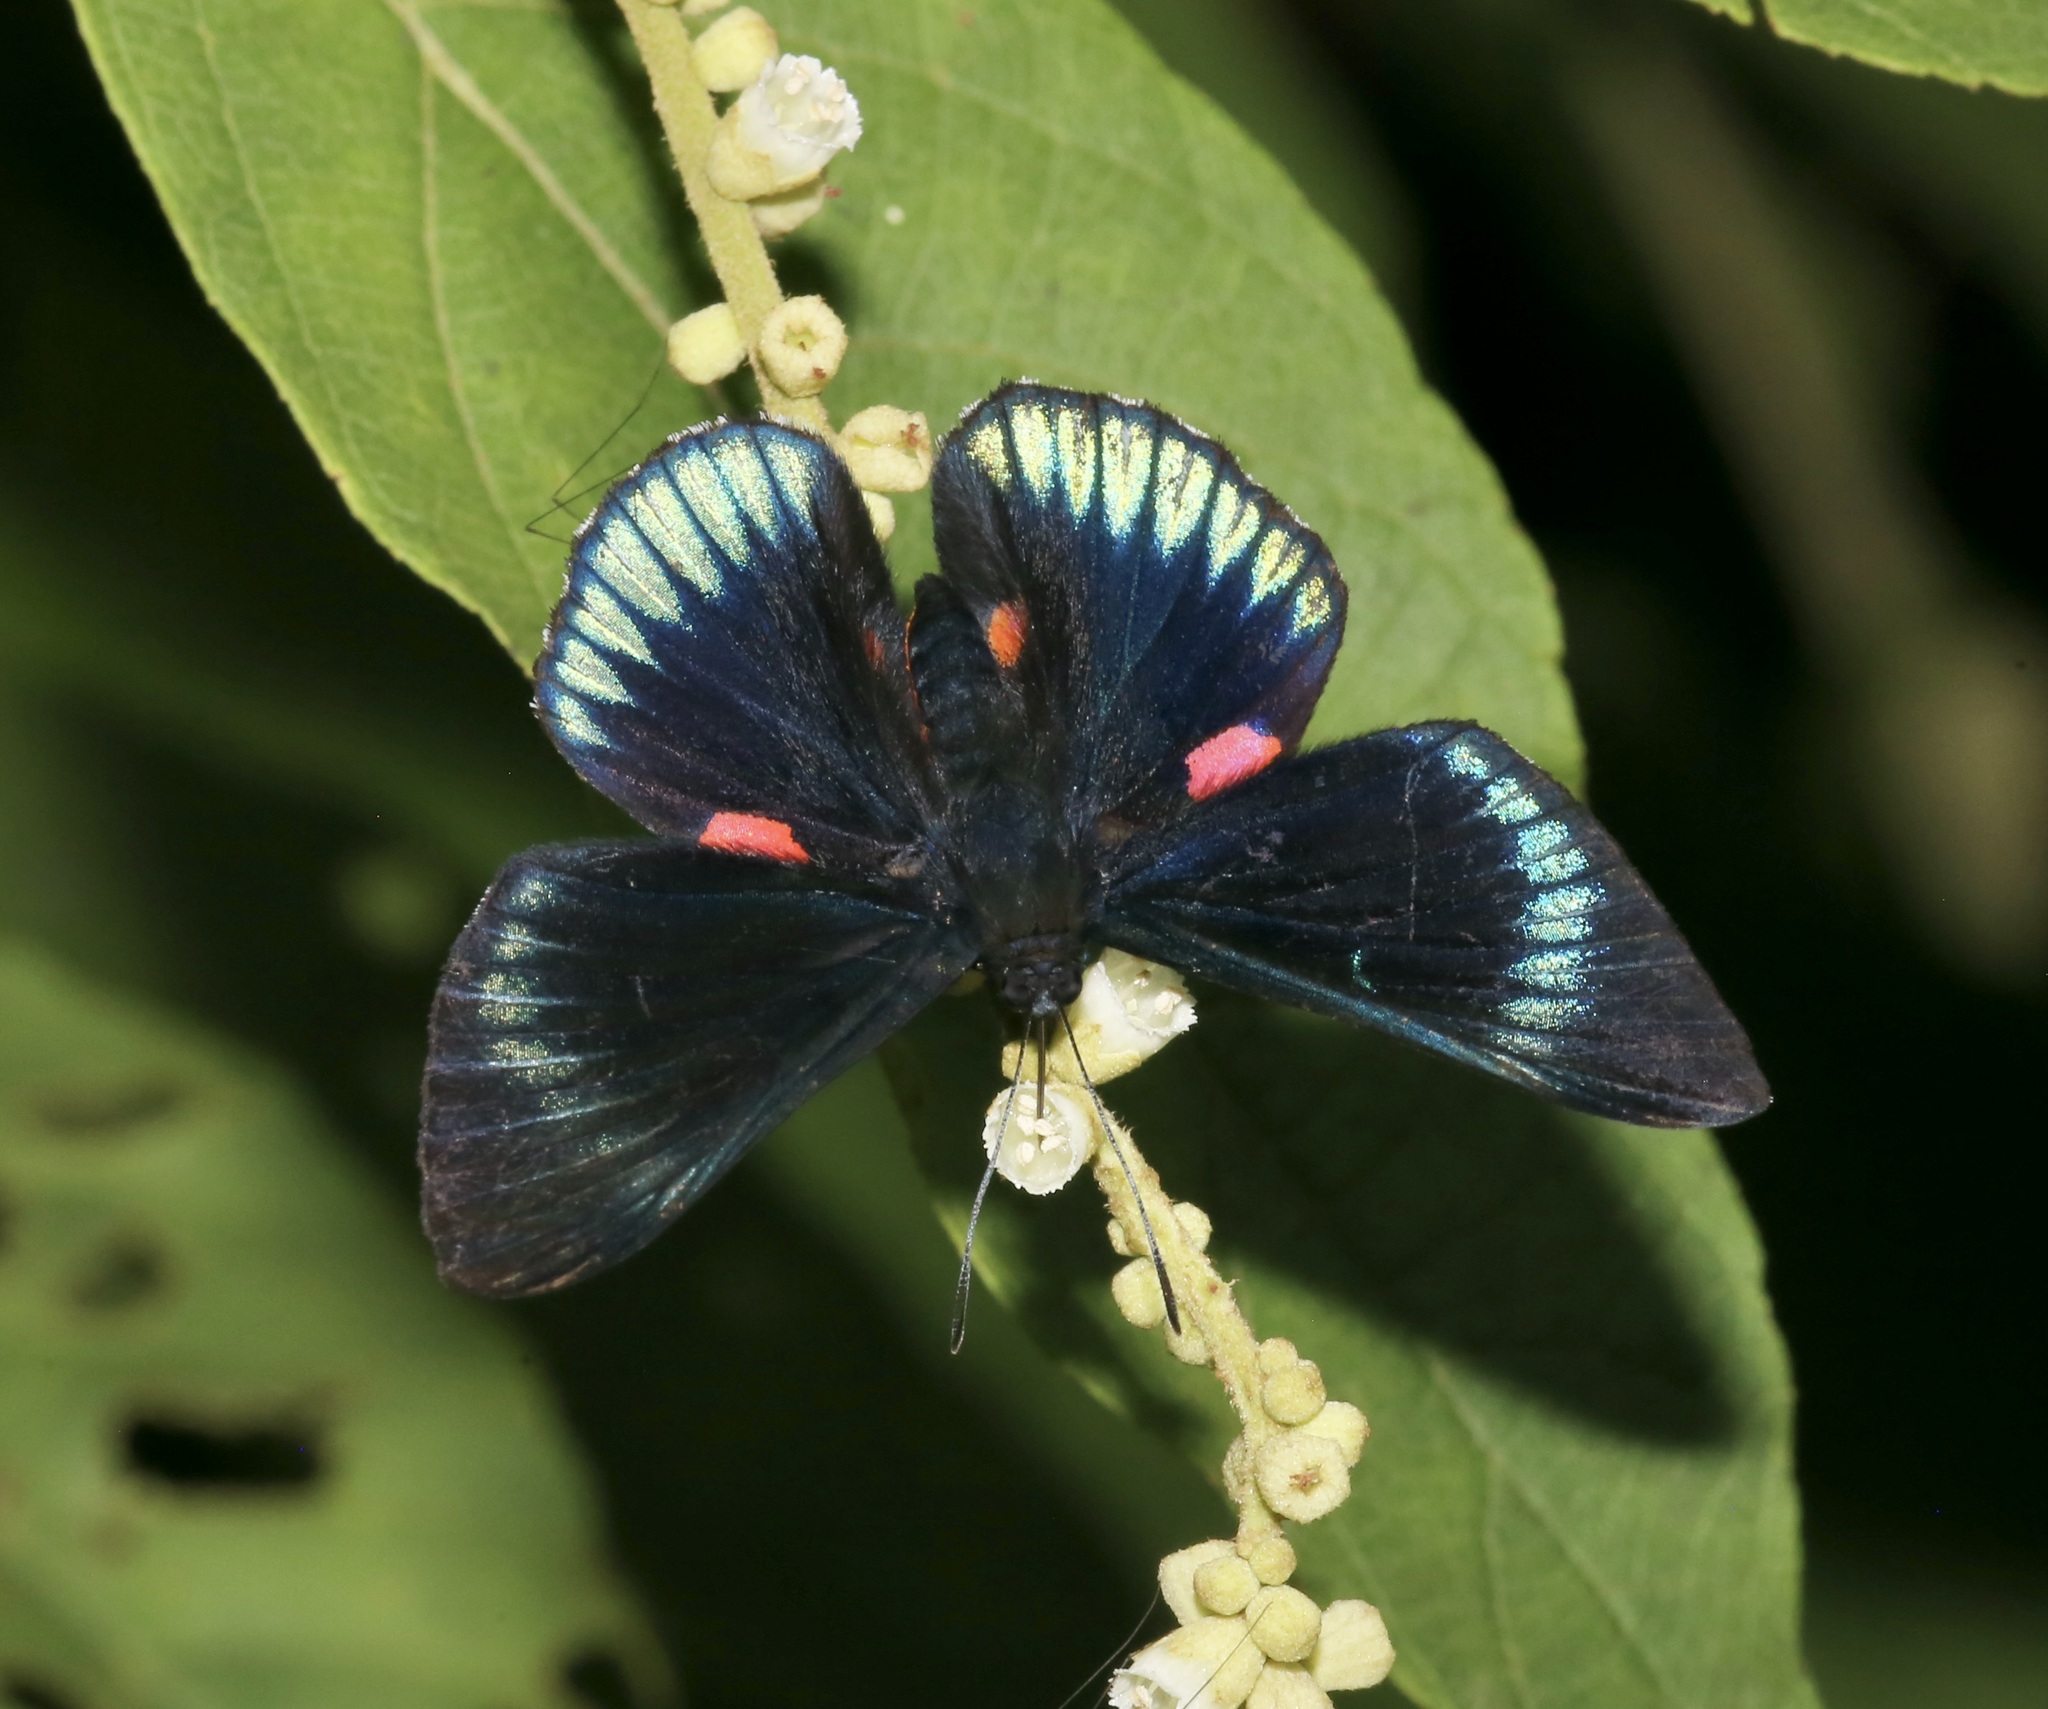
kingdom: Animalia
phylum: Arthropoda
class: Insecta
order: Lepidoptera
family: Lycaenidae
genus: Necyria
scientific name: Necyria duellona
